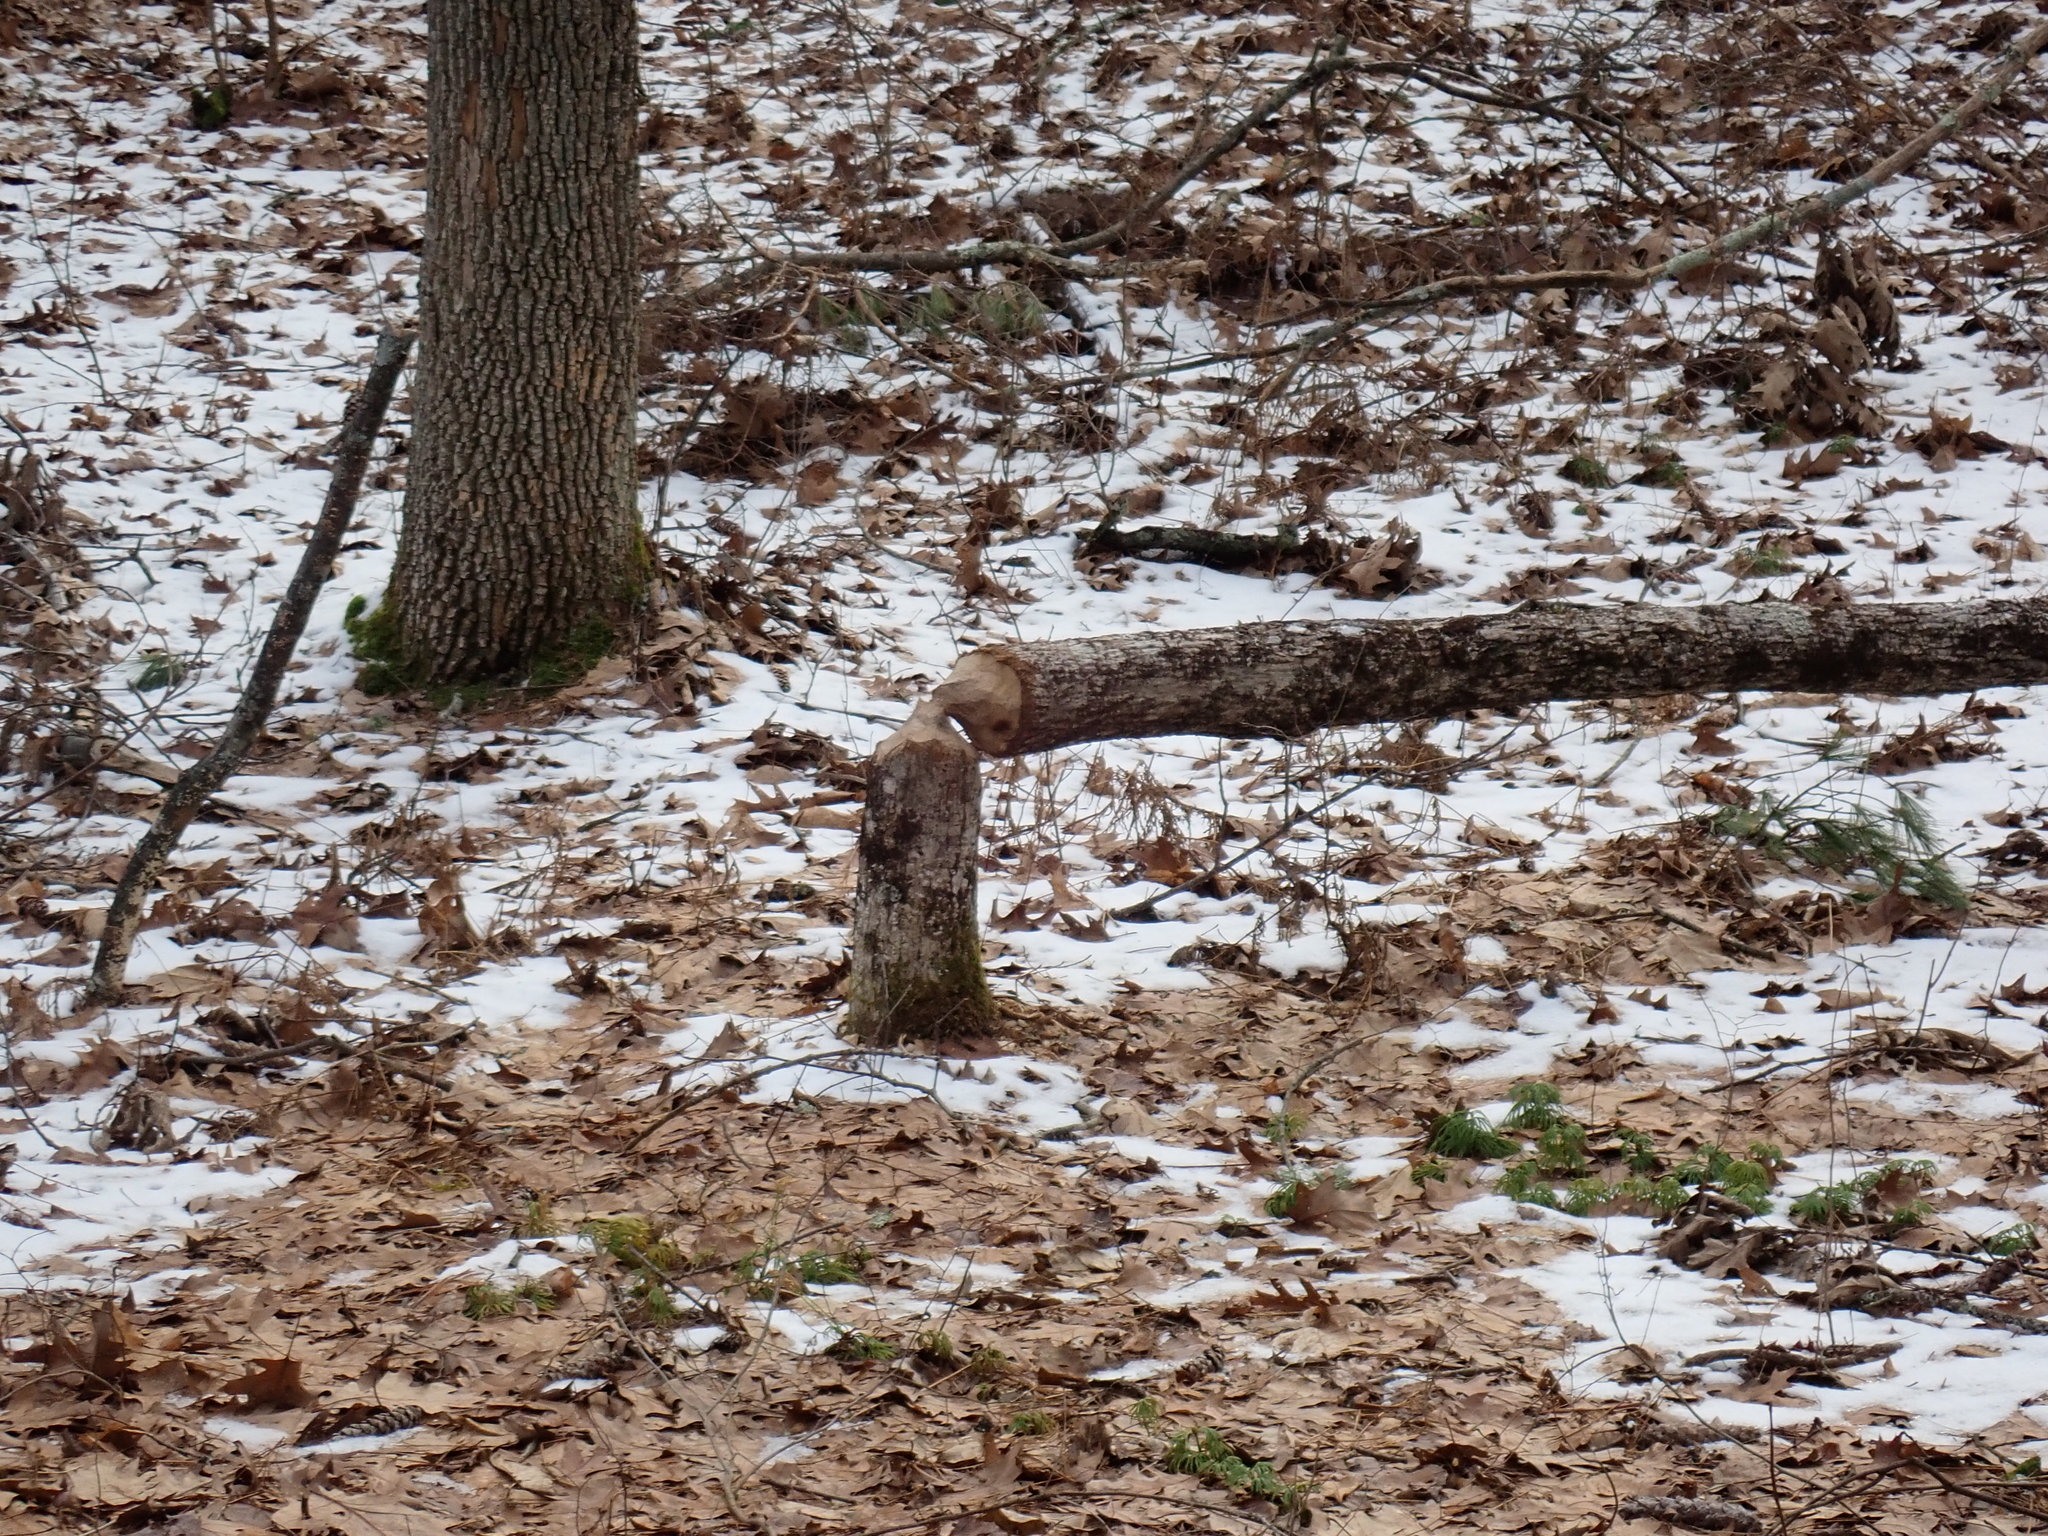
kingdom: Animalia
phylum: Chordata
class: Mammalia
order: Rodentia
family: Castoridae
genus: Castor
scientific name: Castor canadensis
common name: American beaver
